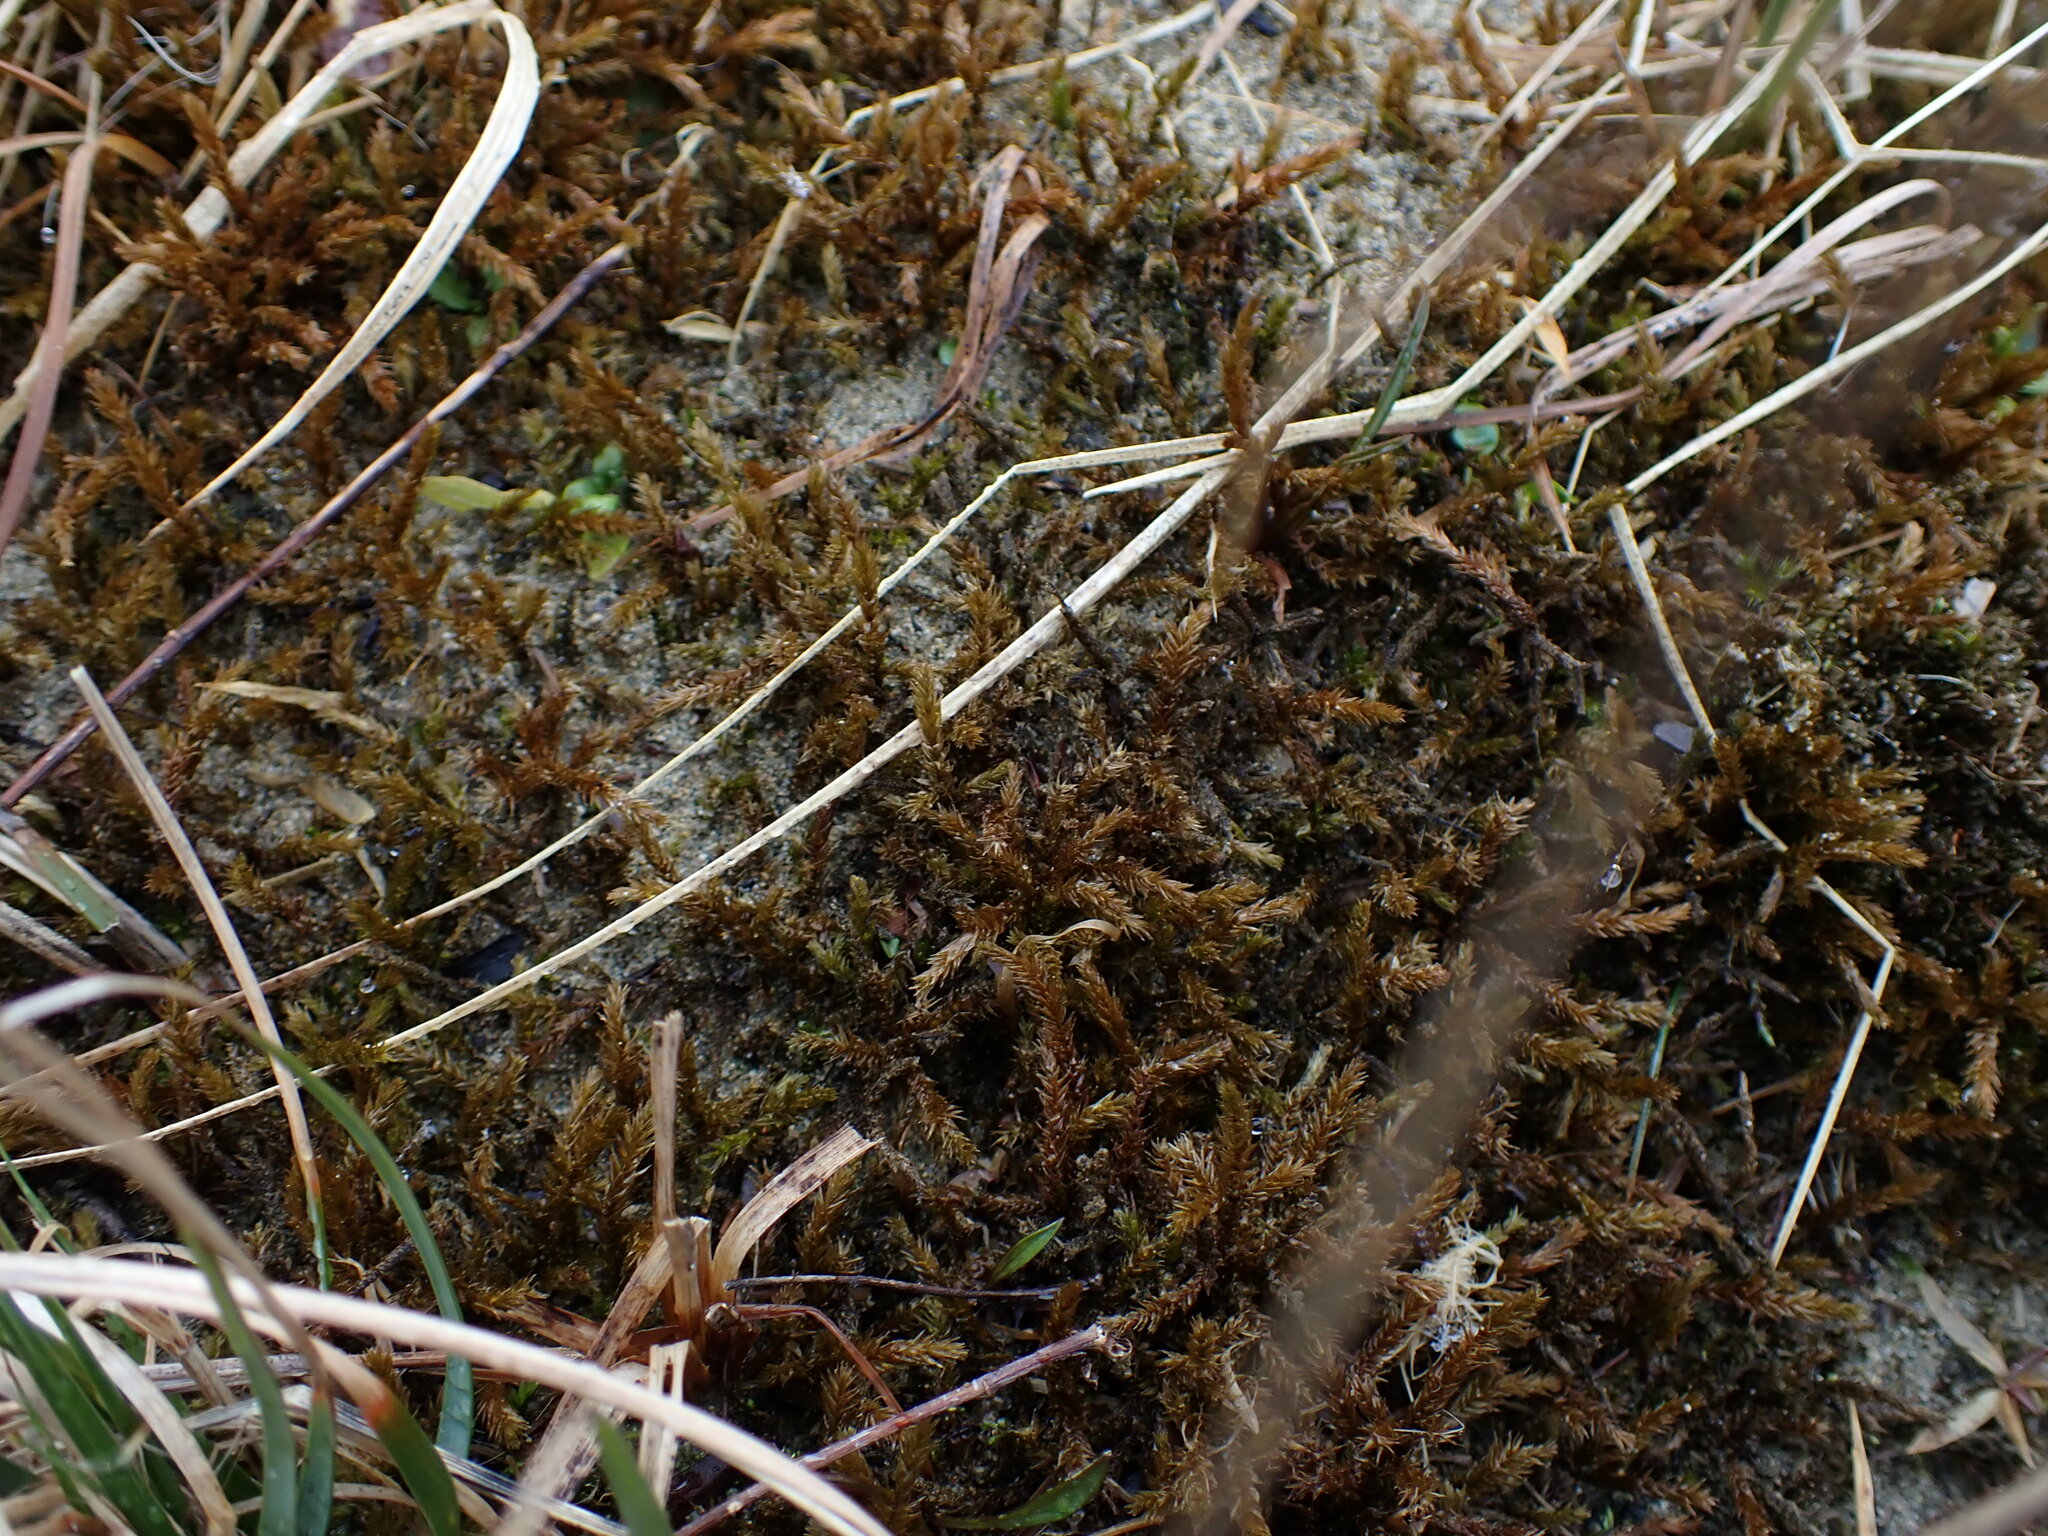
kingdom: Plantae
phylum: Bryophyta
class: Bryopsida
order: Hypnales
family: Climaciaceae
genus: Climacium
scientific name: Climacium dendroides
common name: Northern tree moss
